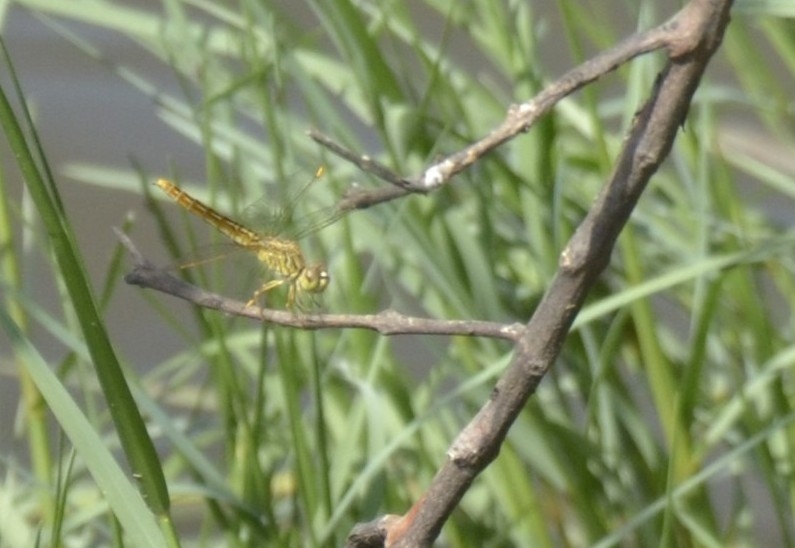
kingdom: Animalia
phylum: Arthropoda
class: Insecta
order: Odonata
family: Libellulidae
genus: Brachythemis
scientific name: Brachythemis contaminata
